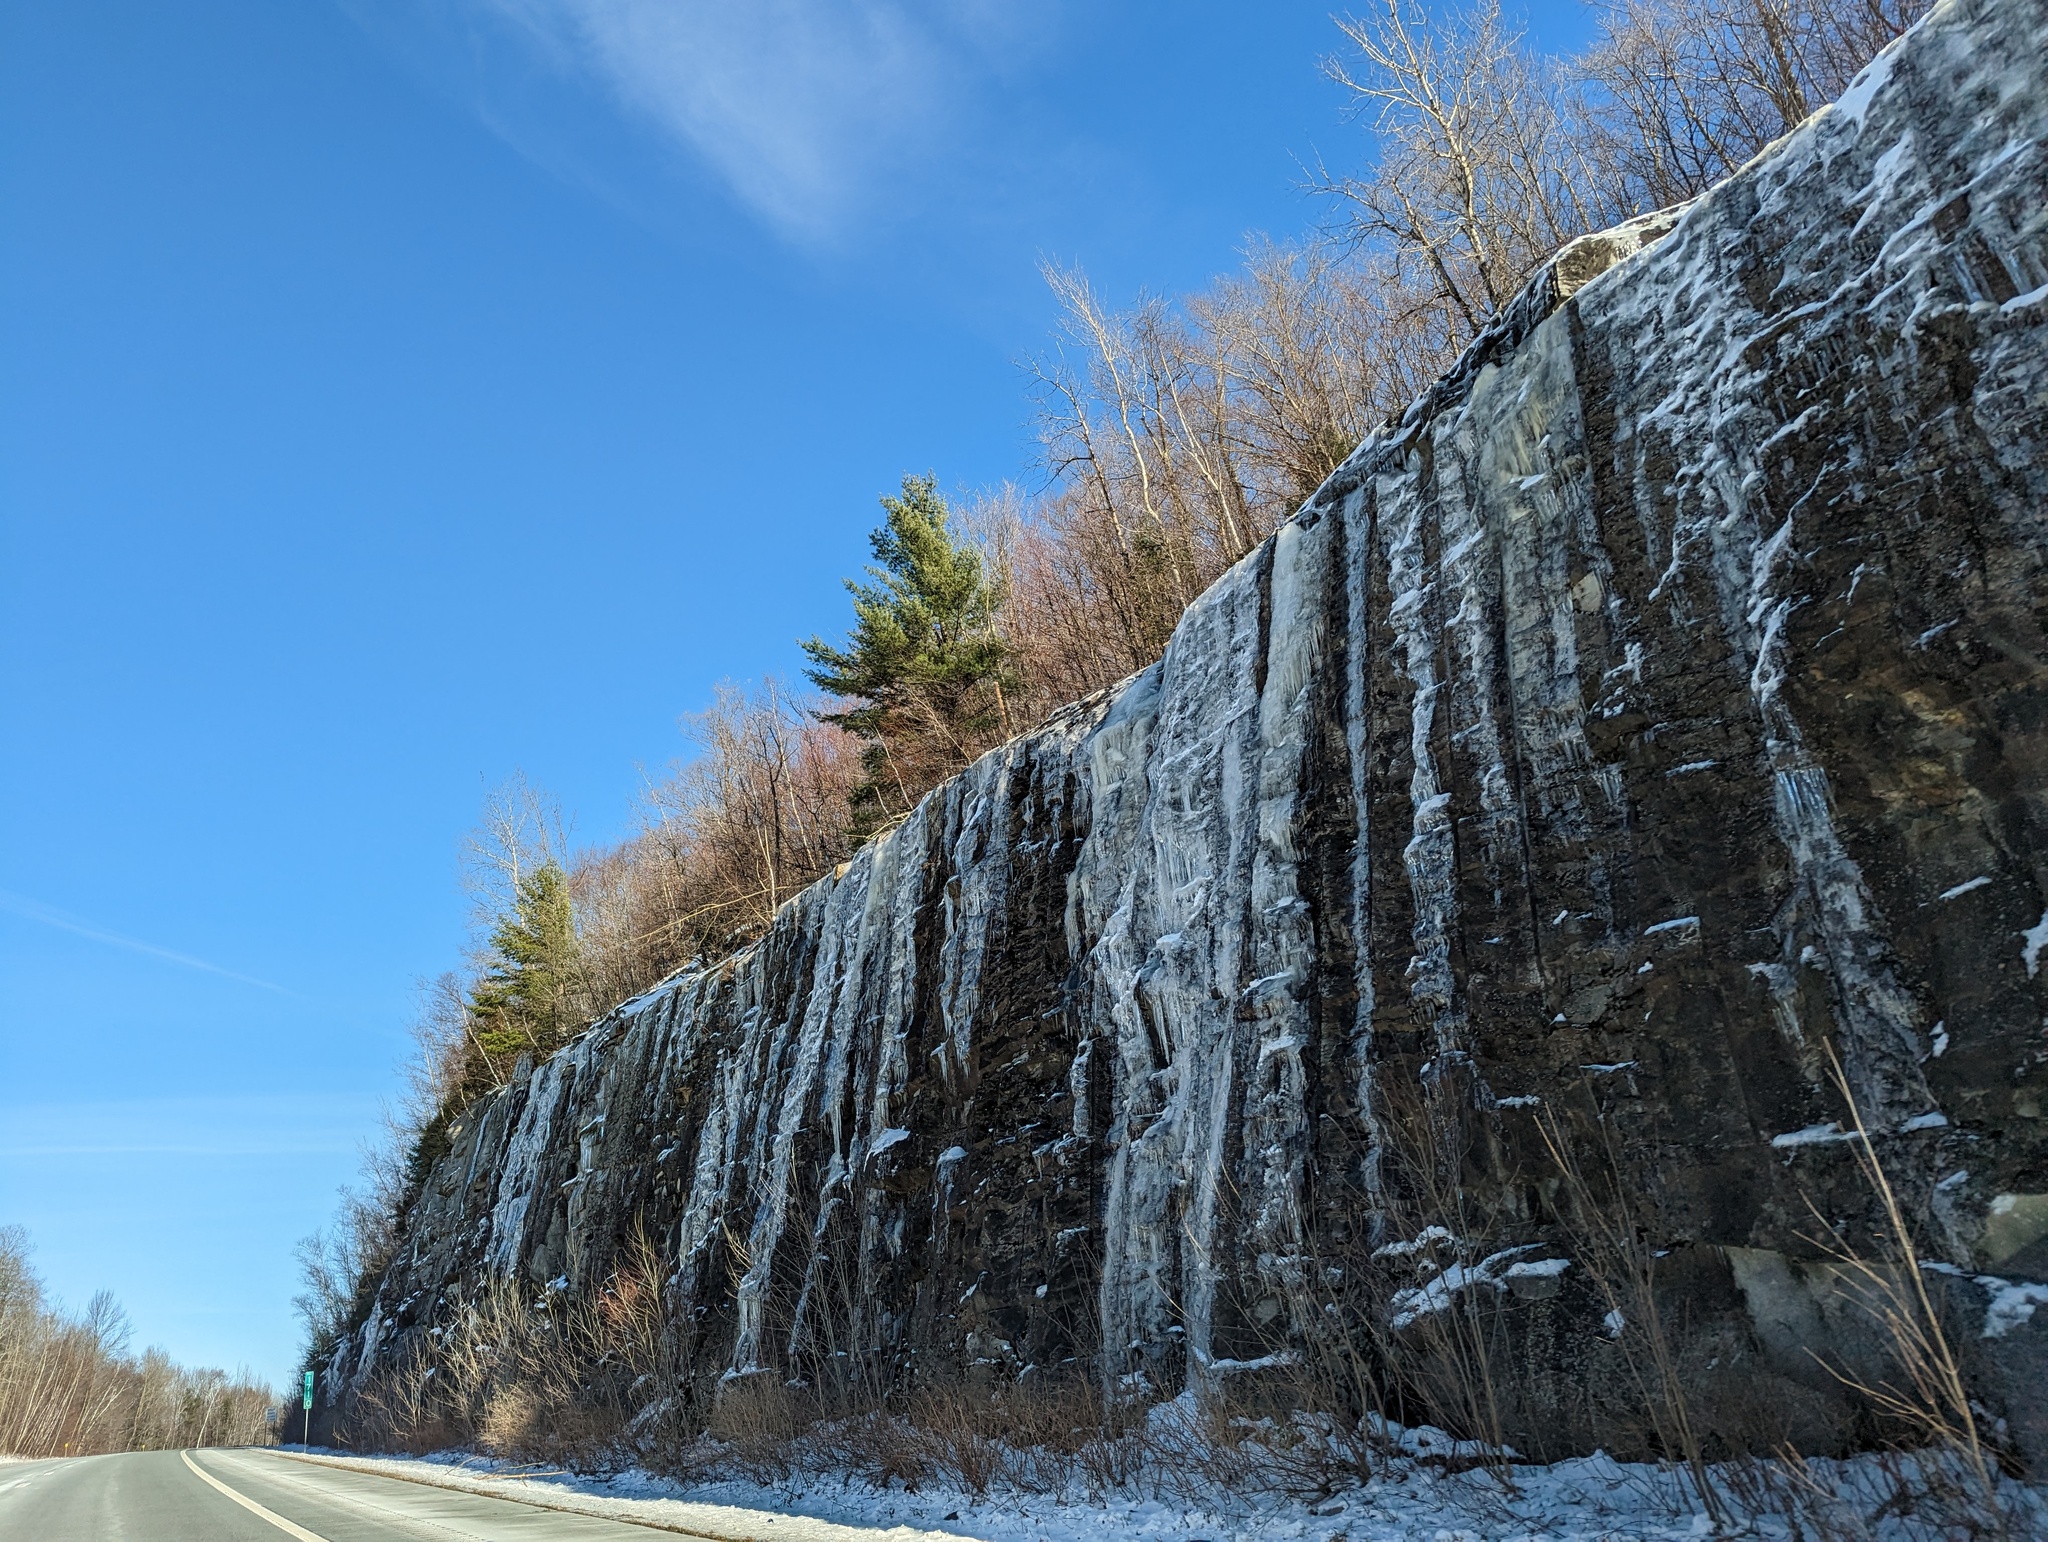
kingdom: Plantae
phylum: Tracheophyta
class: Pinopsida
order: Pinales
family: Pinaceae
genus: Pinus
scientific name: Pinus strobus
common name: Weymouth pine
